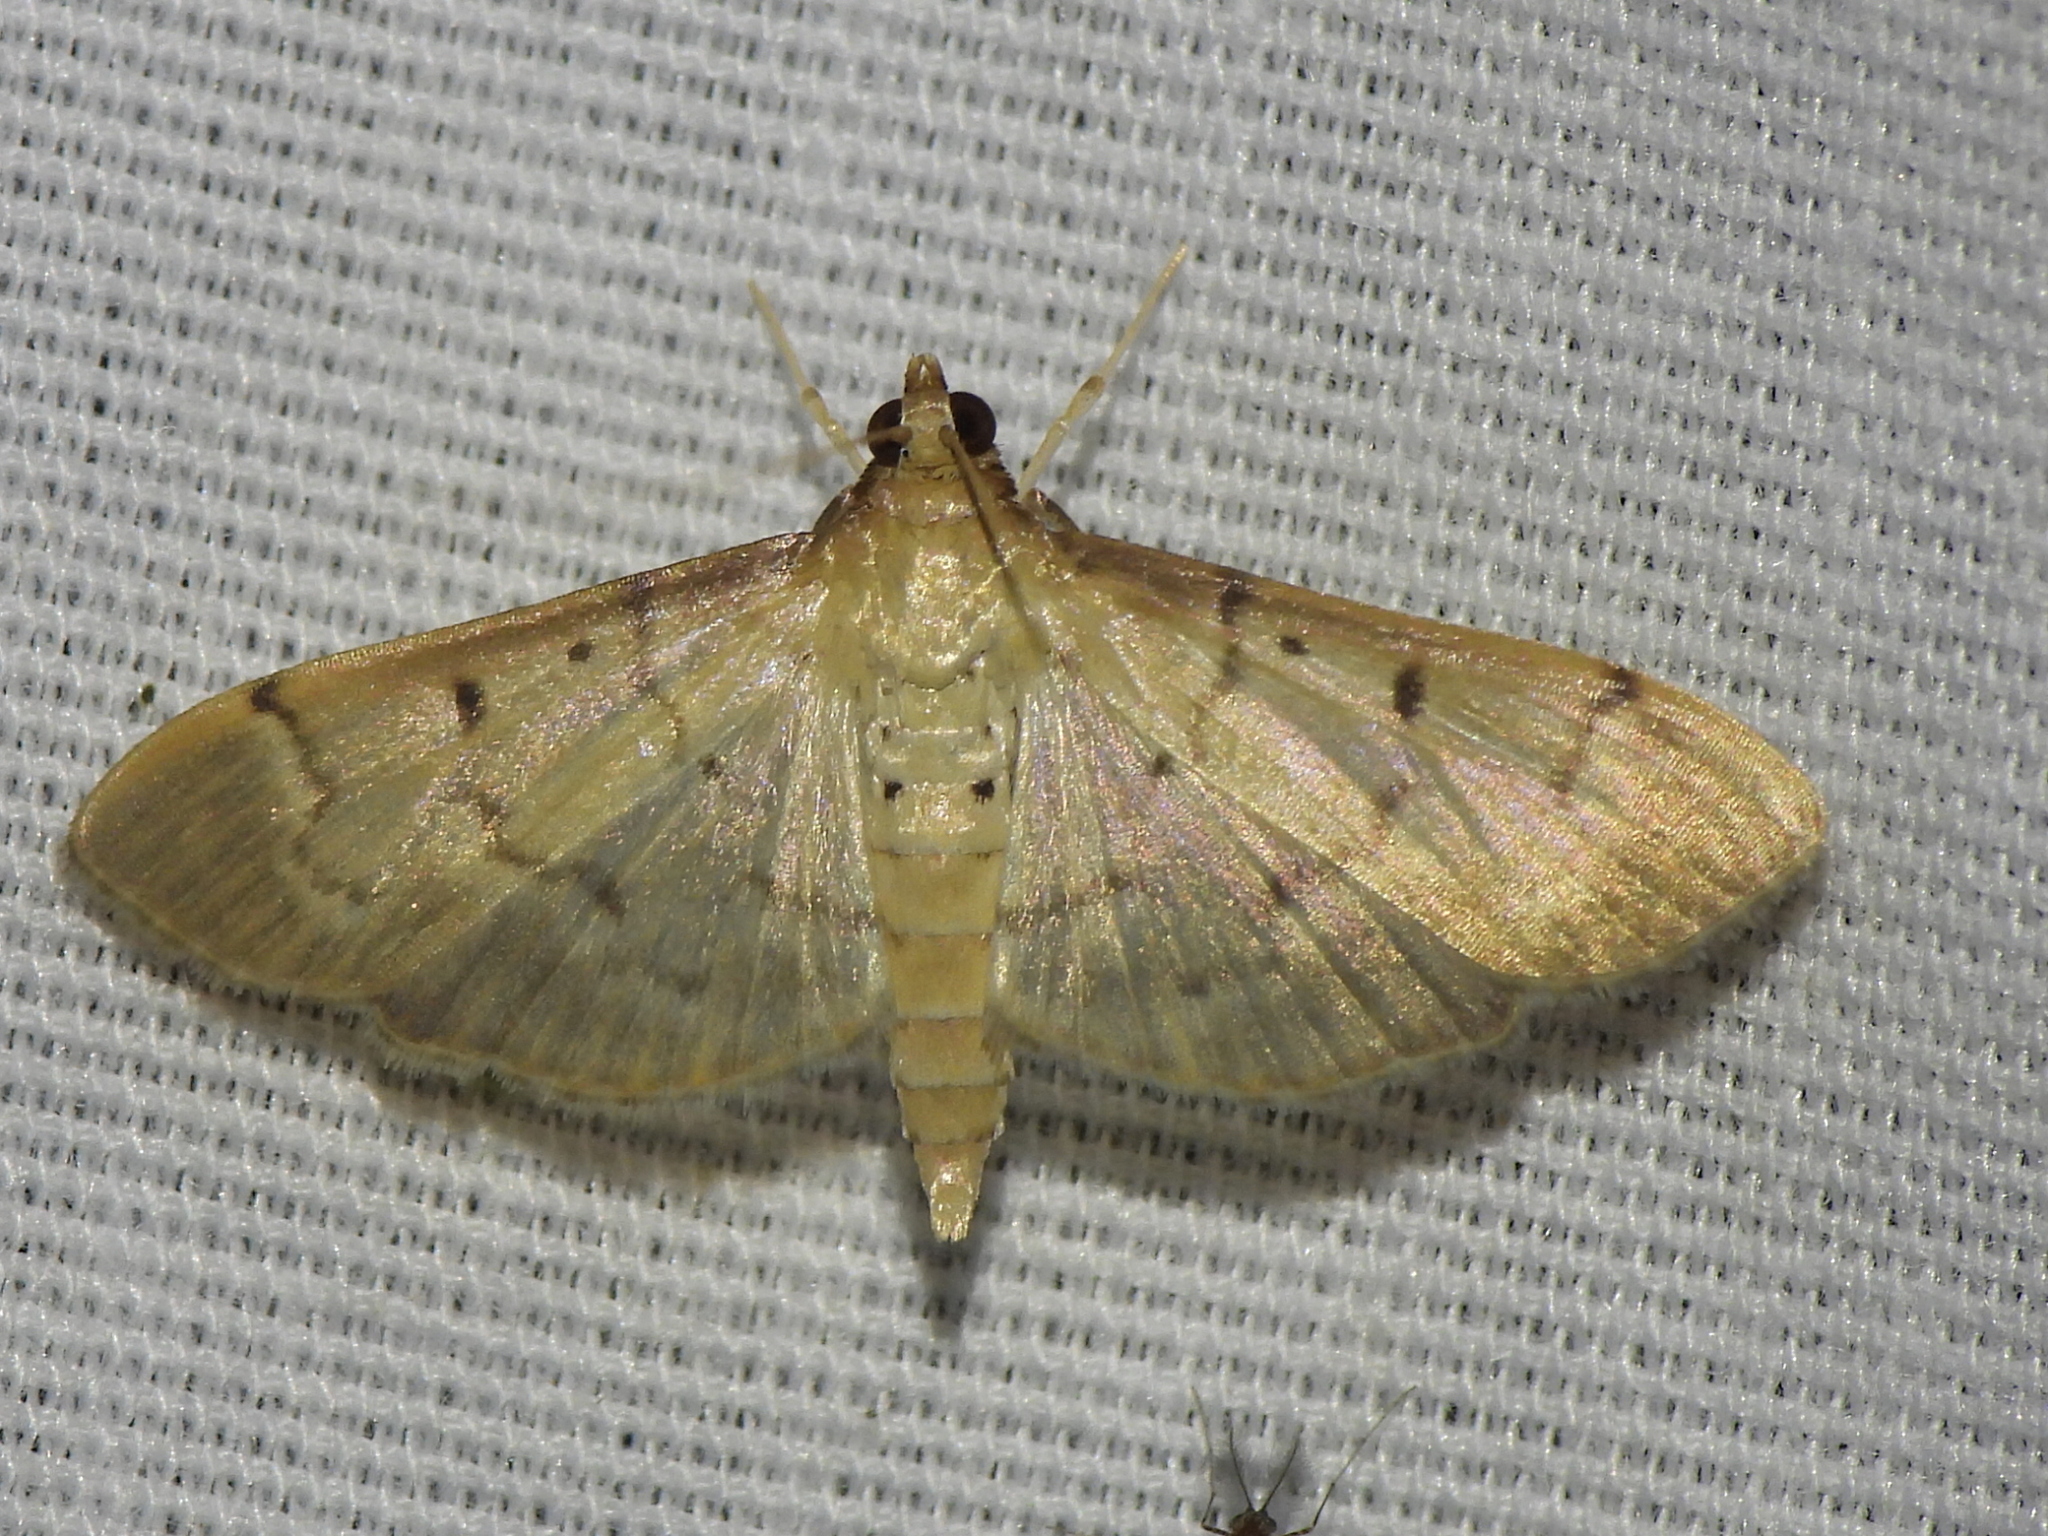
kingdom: Animalia
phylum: Arthropoda
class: Insecta
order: Lepidoptera
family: Crambidae
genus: Herpetogramma
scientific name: Herpetogramma bipunctalis
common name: Southern beet webworm
